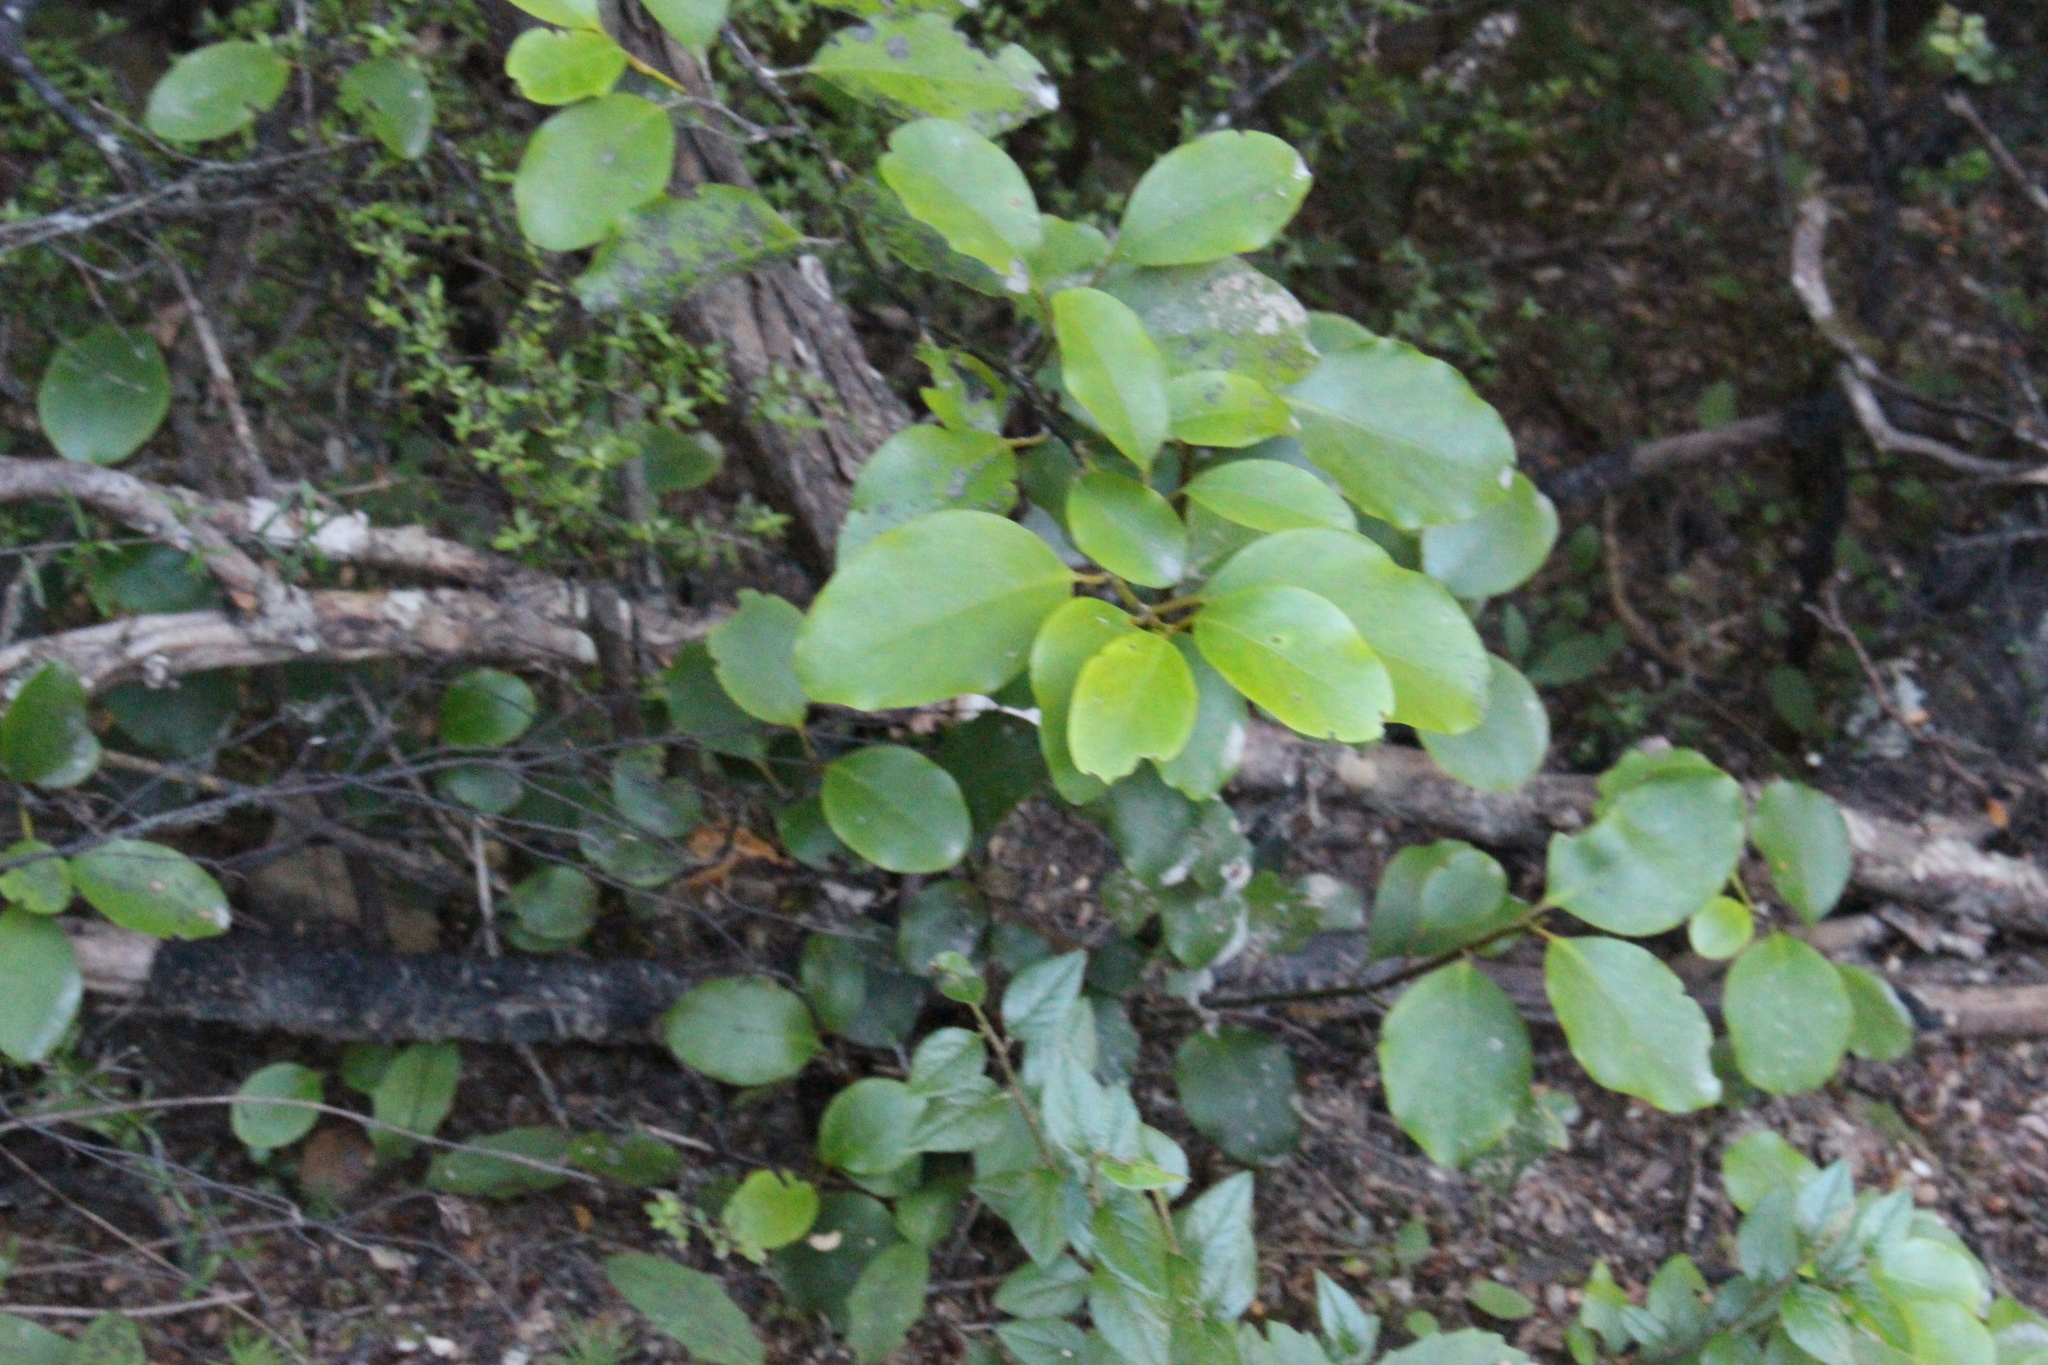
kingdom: Plantae
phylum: Tracheophyta
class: Magnoliopsida
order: Apiales
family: Griseliniaceae
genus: Griselinia
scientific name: Griselinia littoralis
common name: New zealand broadleaf
